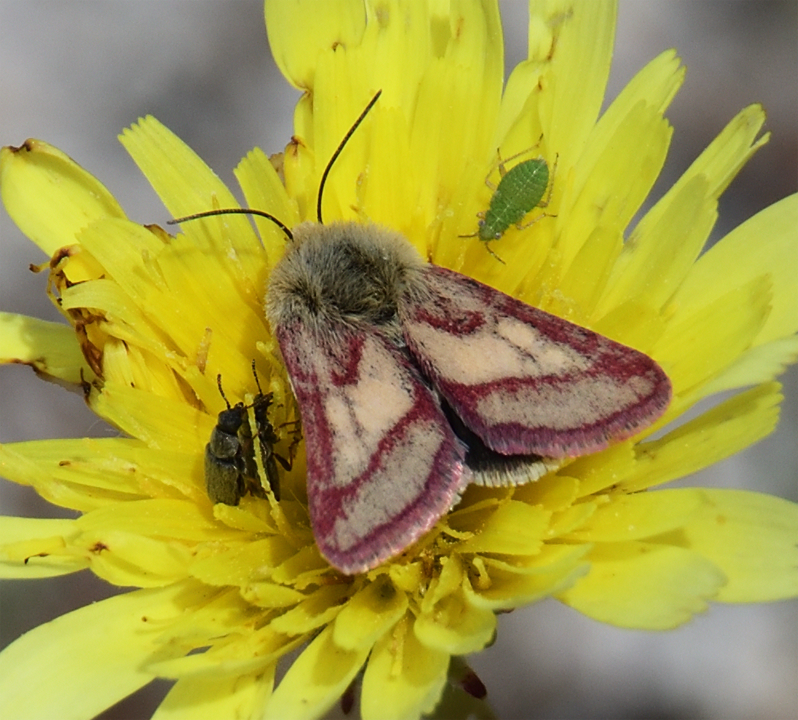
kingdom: Animalia
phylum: Arthropoda
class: Insecta
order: Lepidoptera
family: Noctuidae
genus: Heliolonche
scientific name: Heliolonche pictipennis
